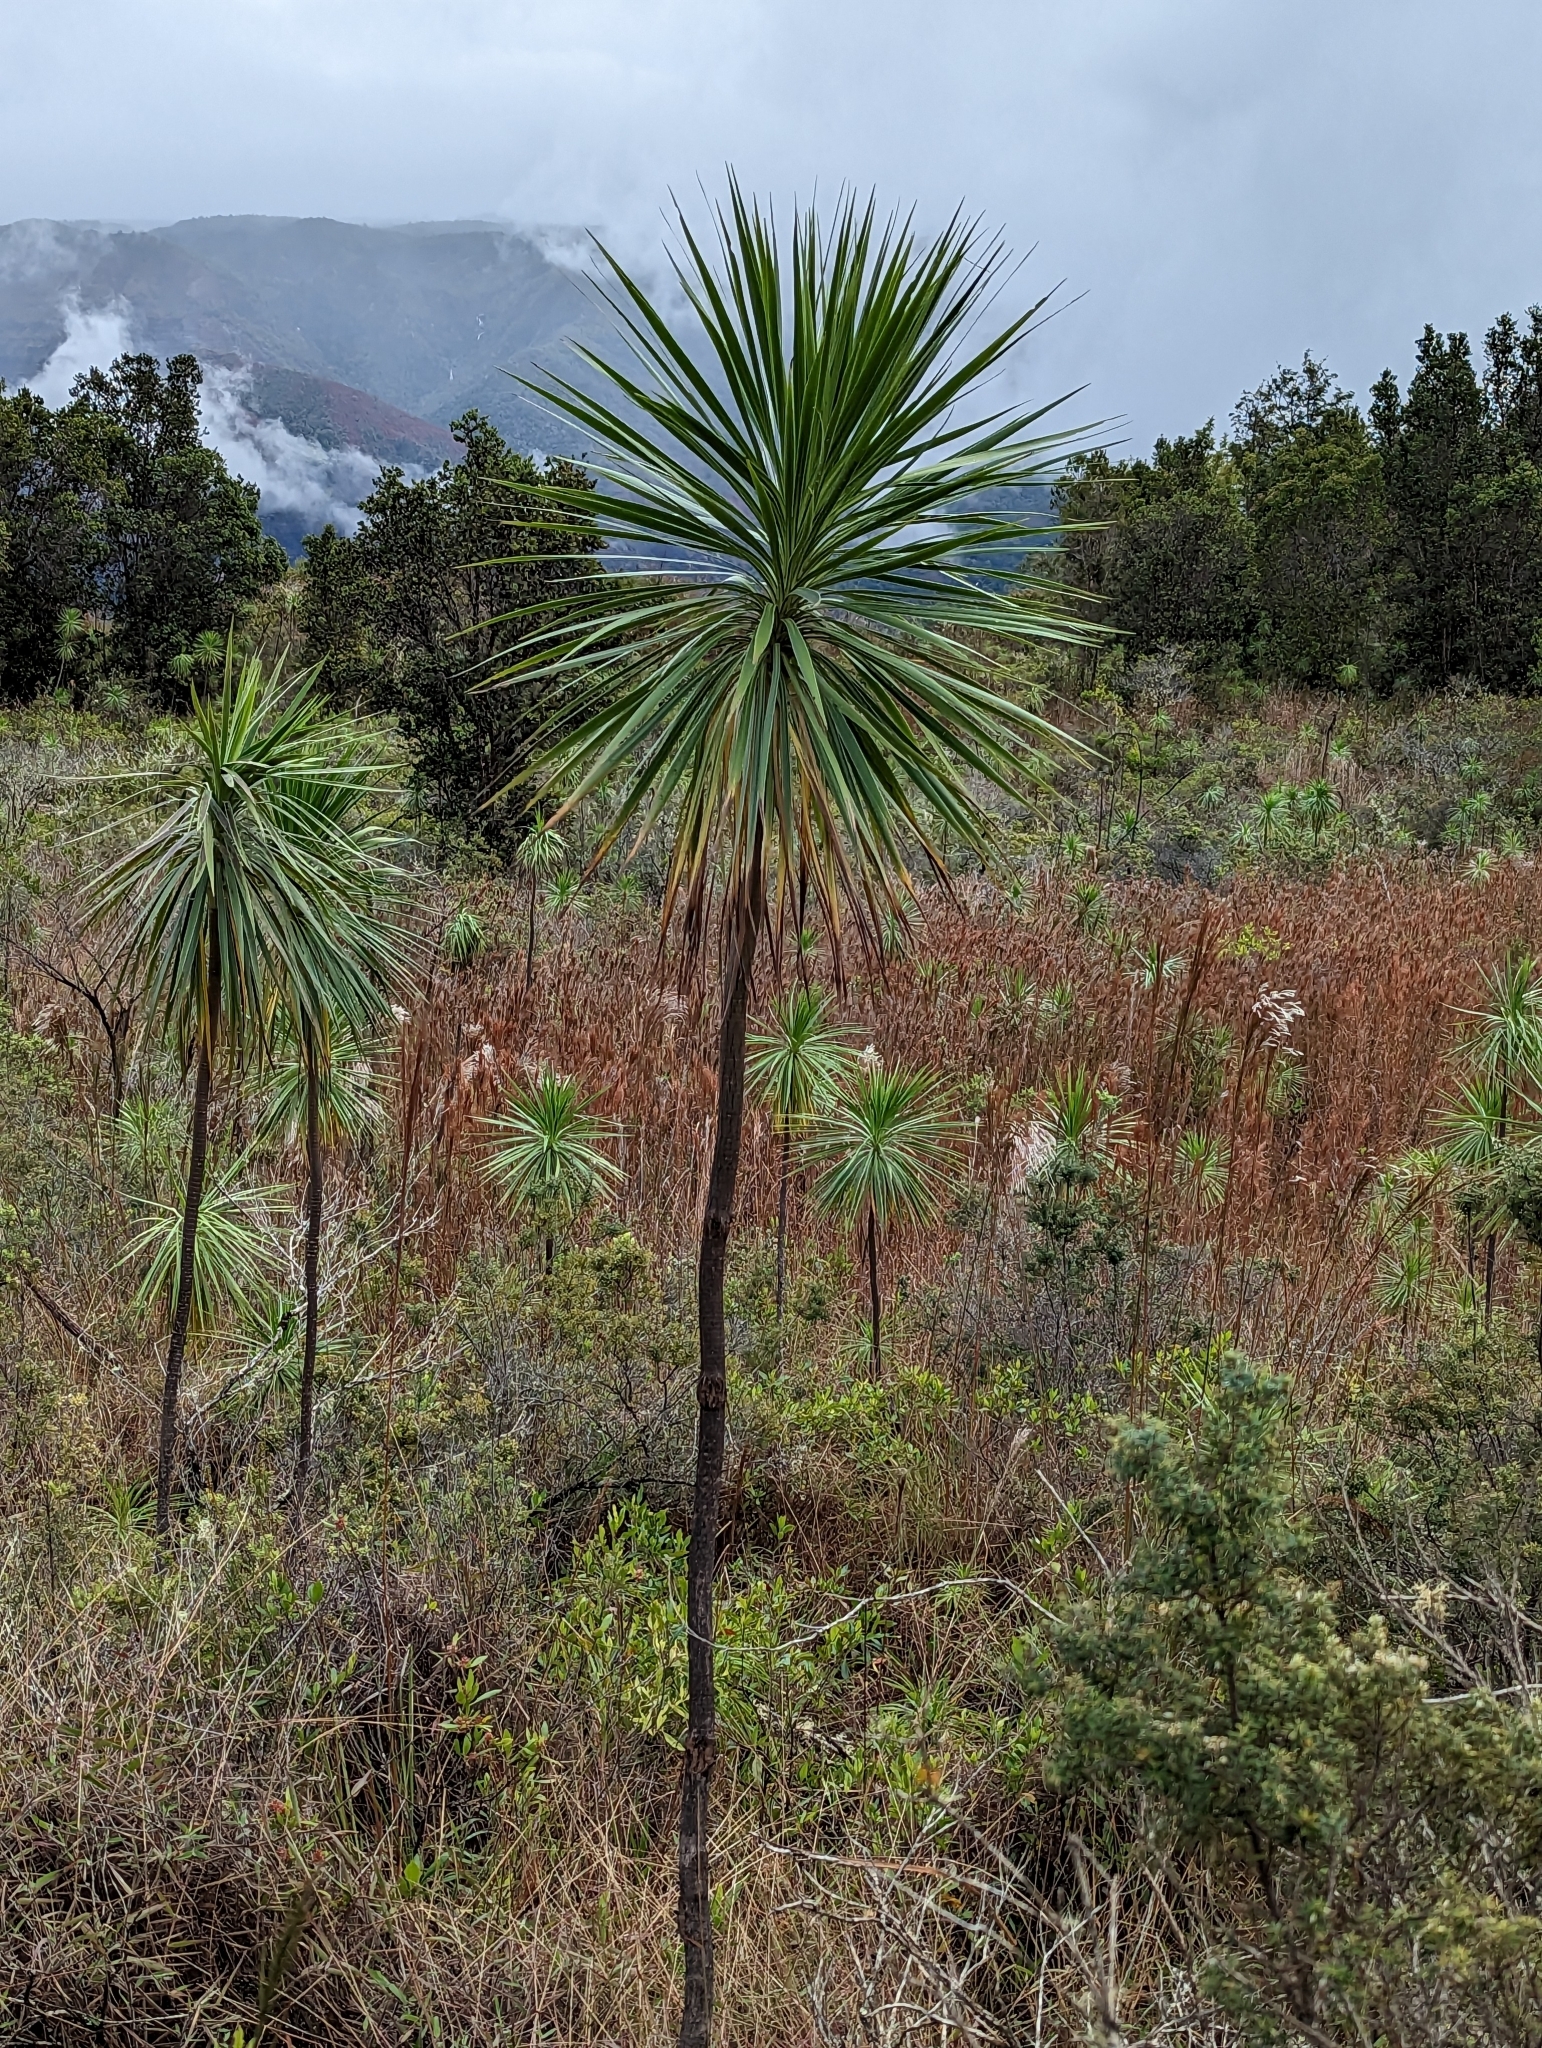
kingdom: Plantae
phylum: Tracheophyta
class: Magnoliopsida
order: Asterales
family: Asteraceae
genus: Wilkesia
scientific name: Wilkesia gymnoxiphium
